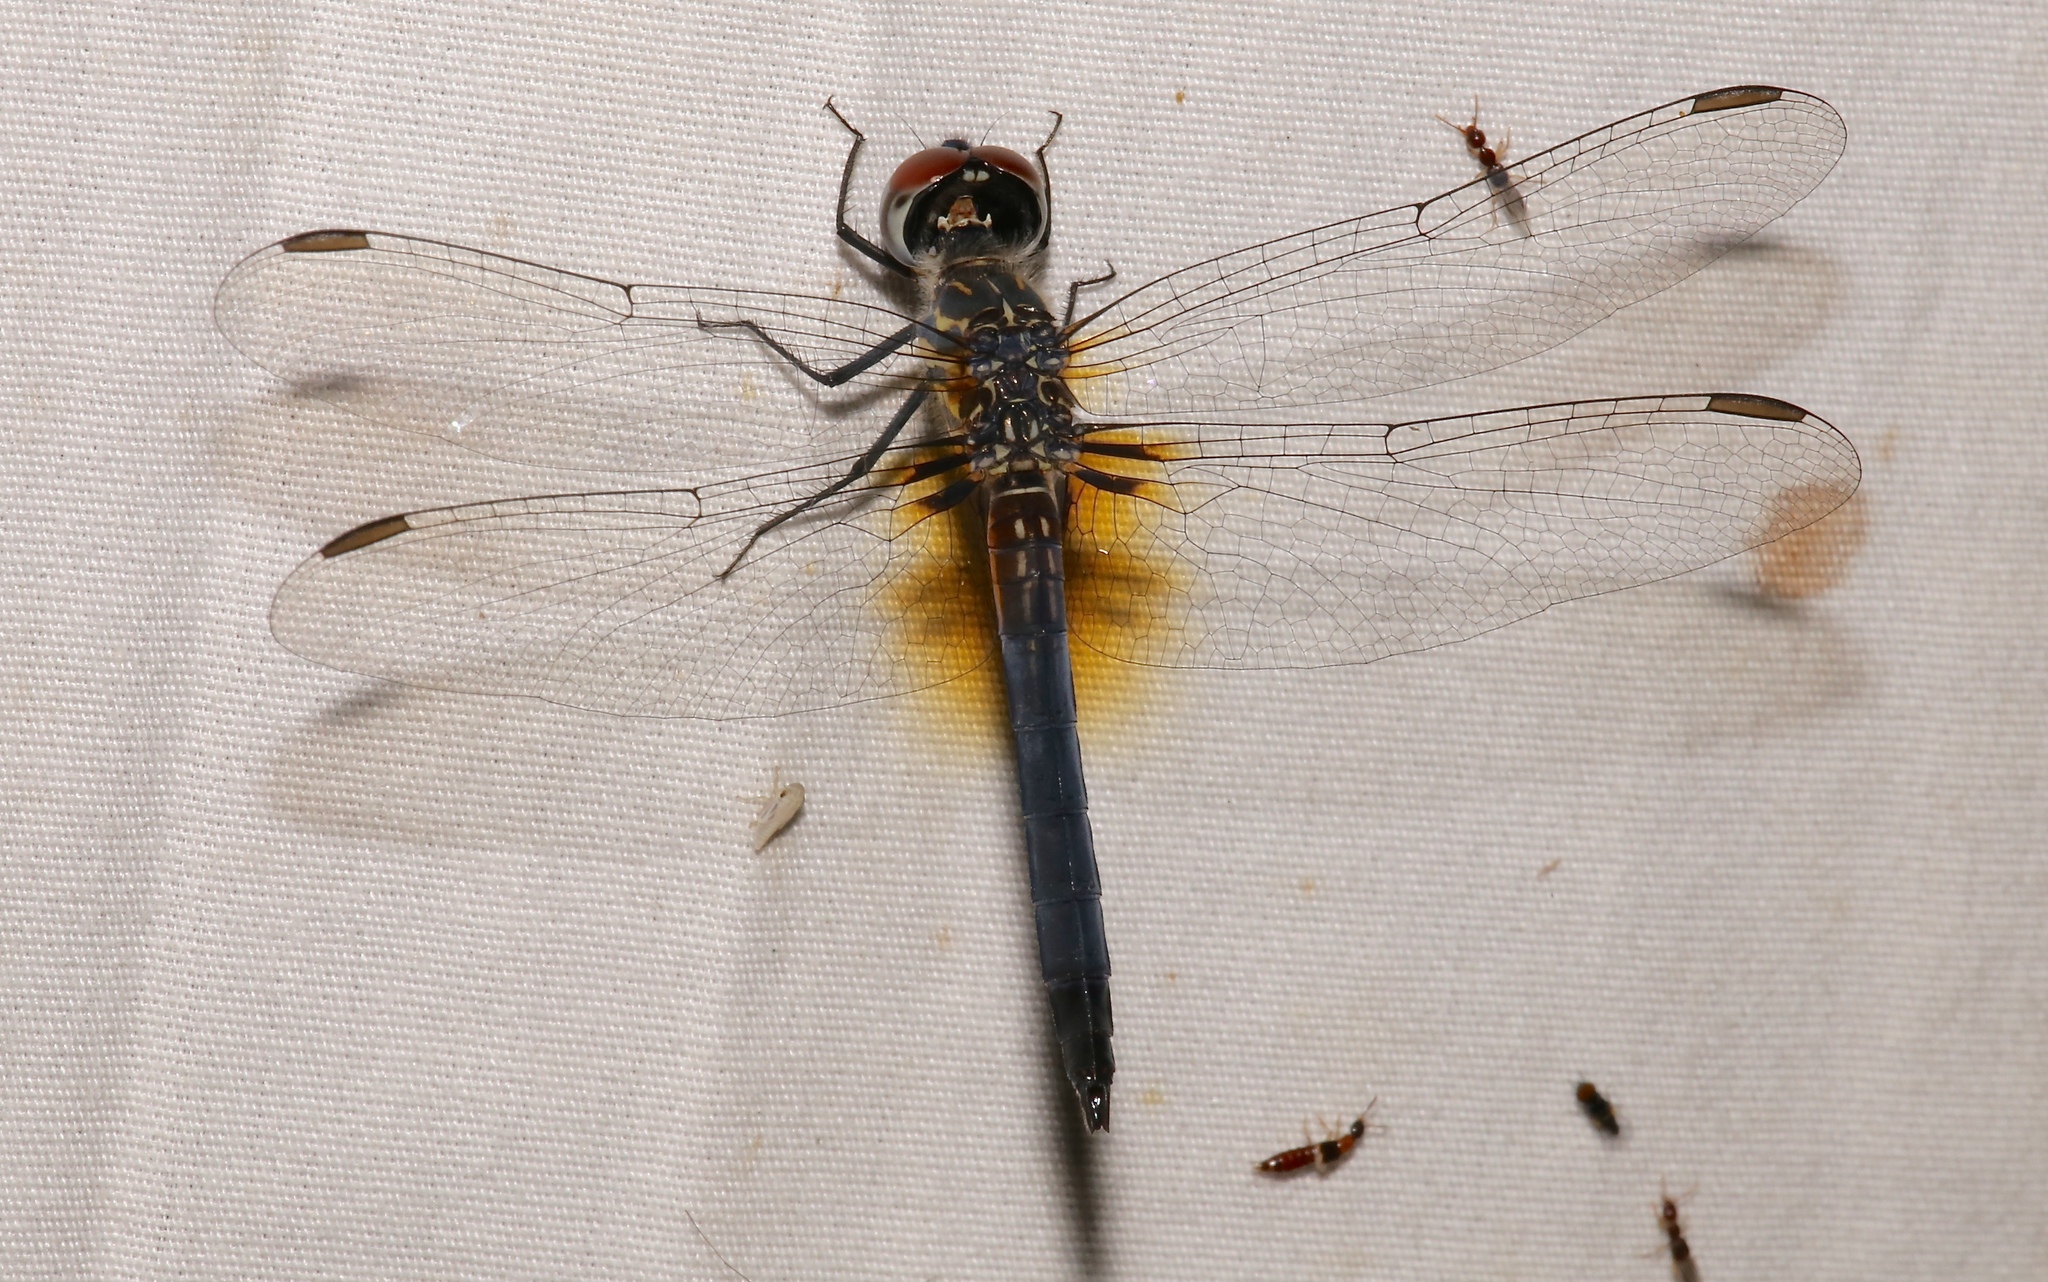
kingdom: Animalia
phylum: Arthropoda
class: Insecta
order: Odonata
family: Libellulidae
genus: Pachydiplax
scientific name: Pachydiplax longipennis
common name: Blue dasher
